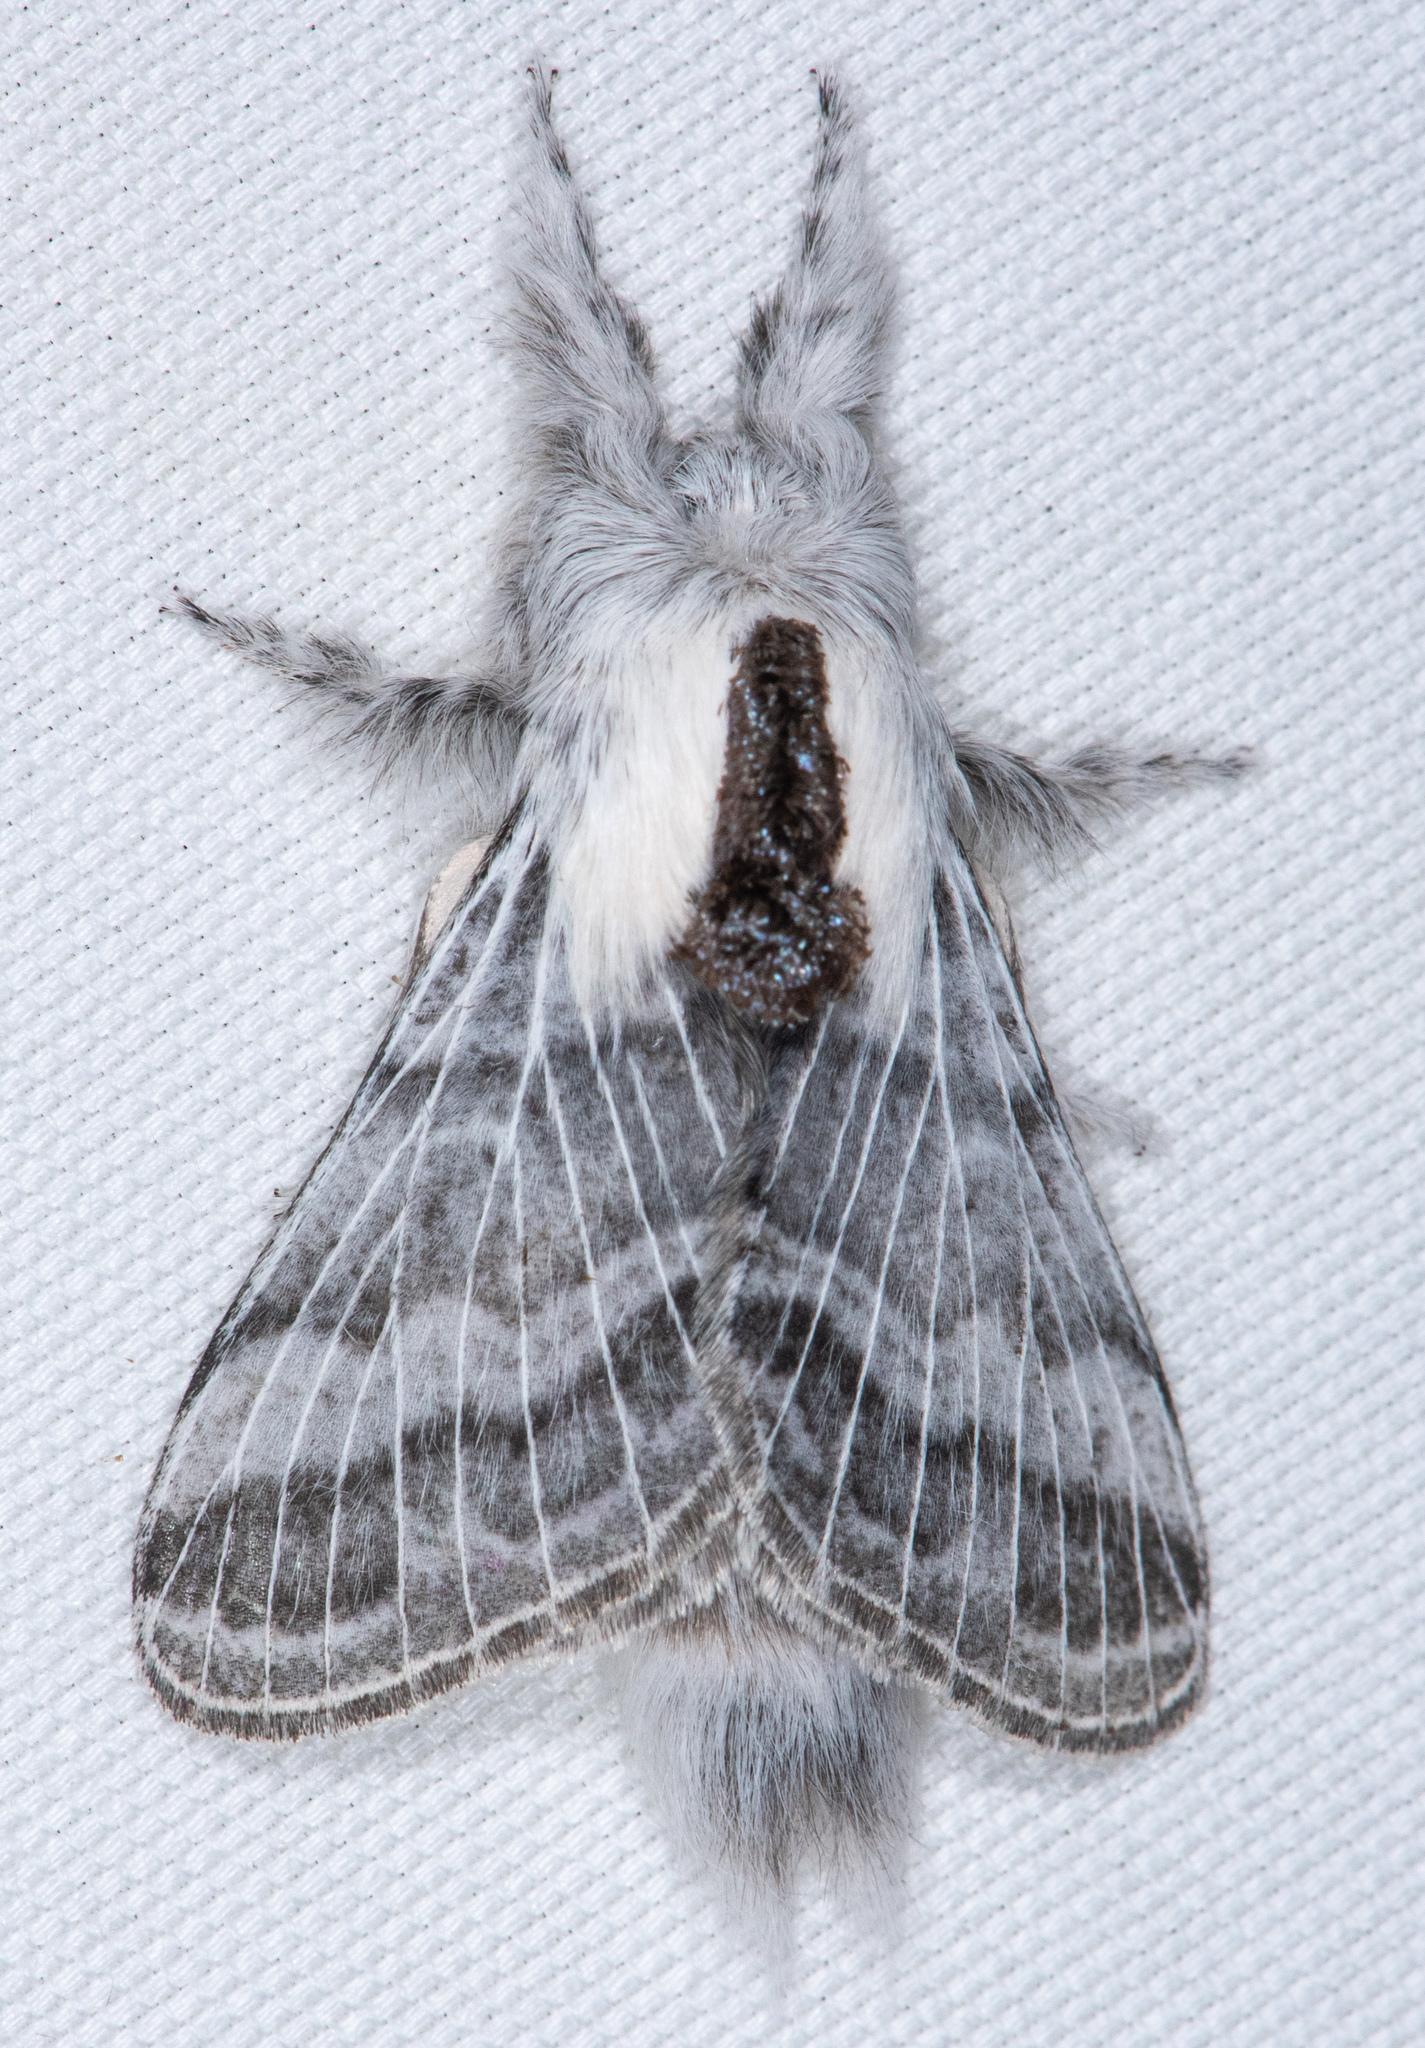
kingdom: Animalia
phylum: Arthropoda
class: Insecta
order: Lepidoptera
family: Lasiocampidae
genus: Tolype
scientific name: Tolype distincta
